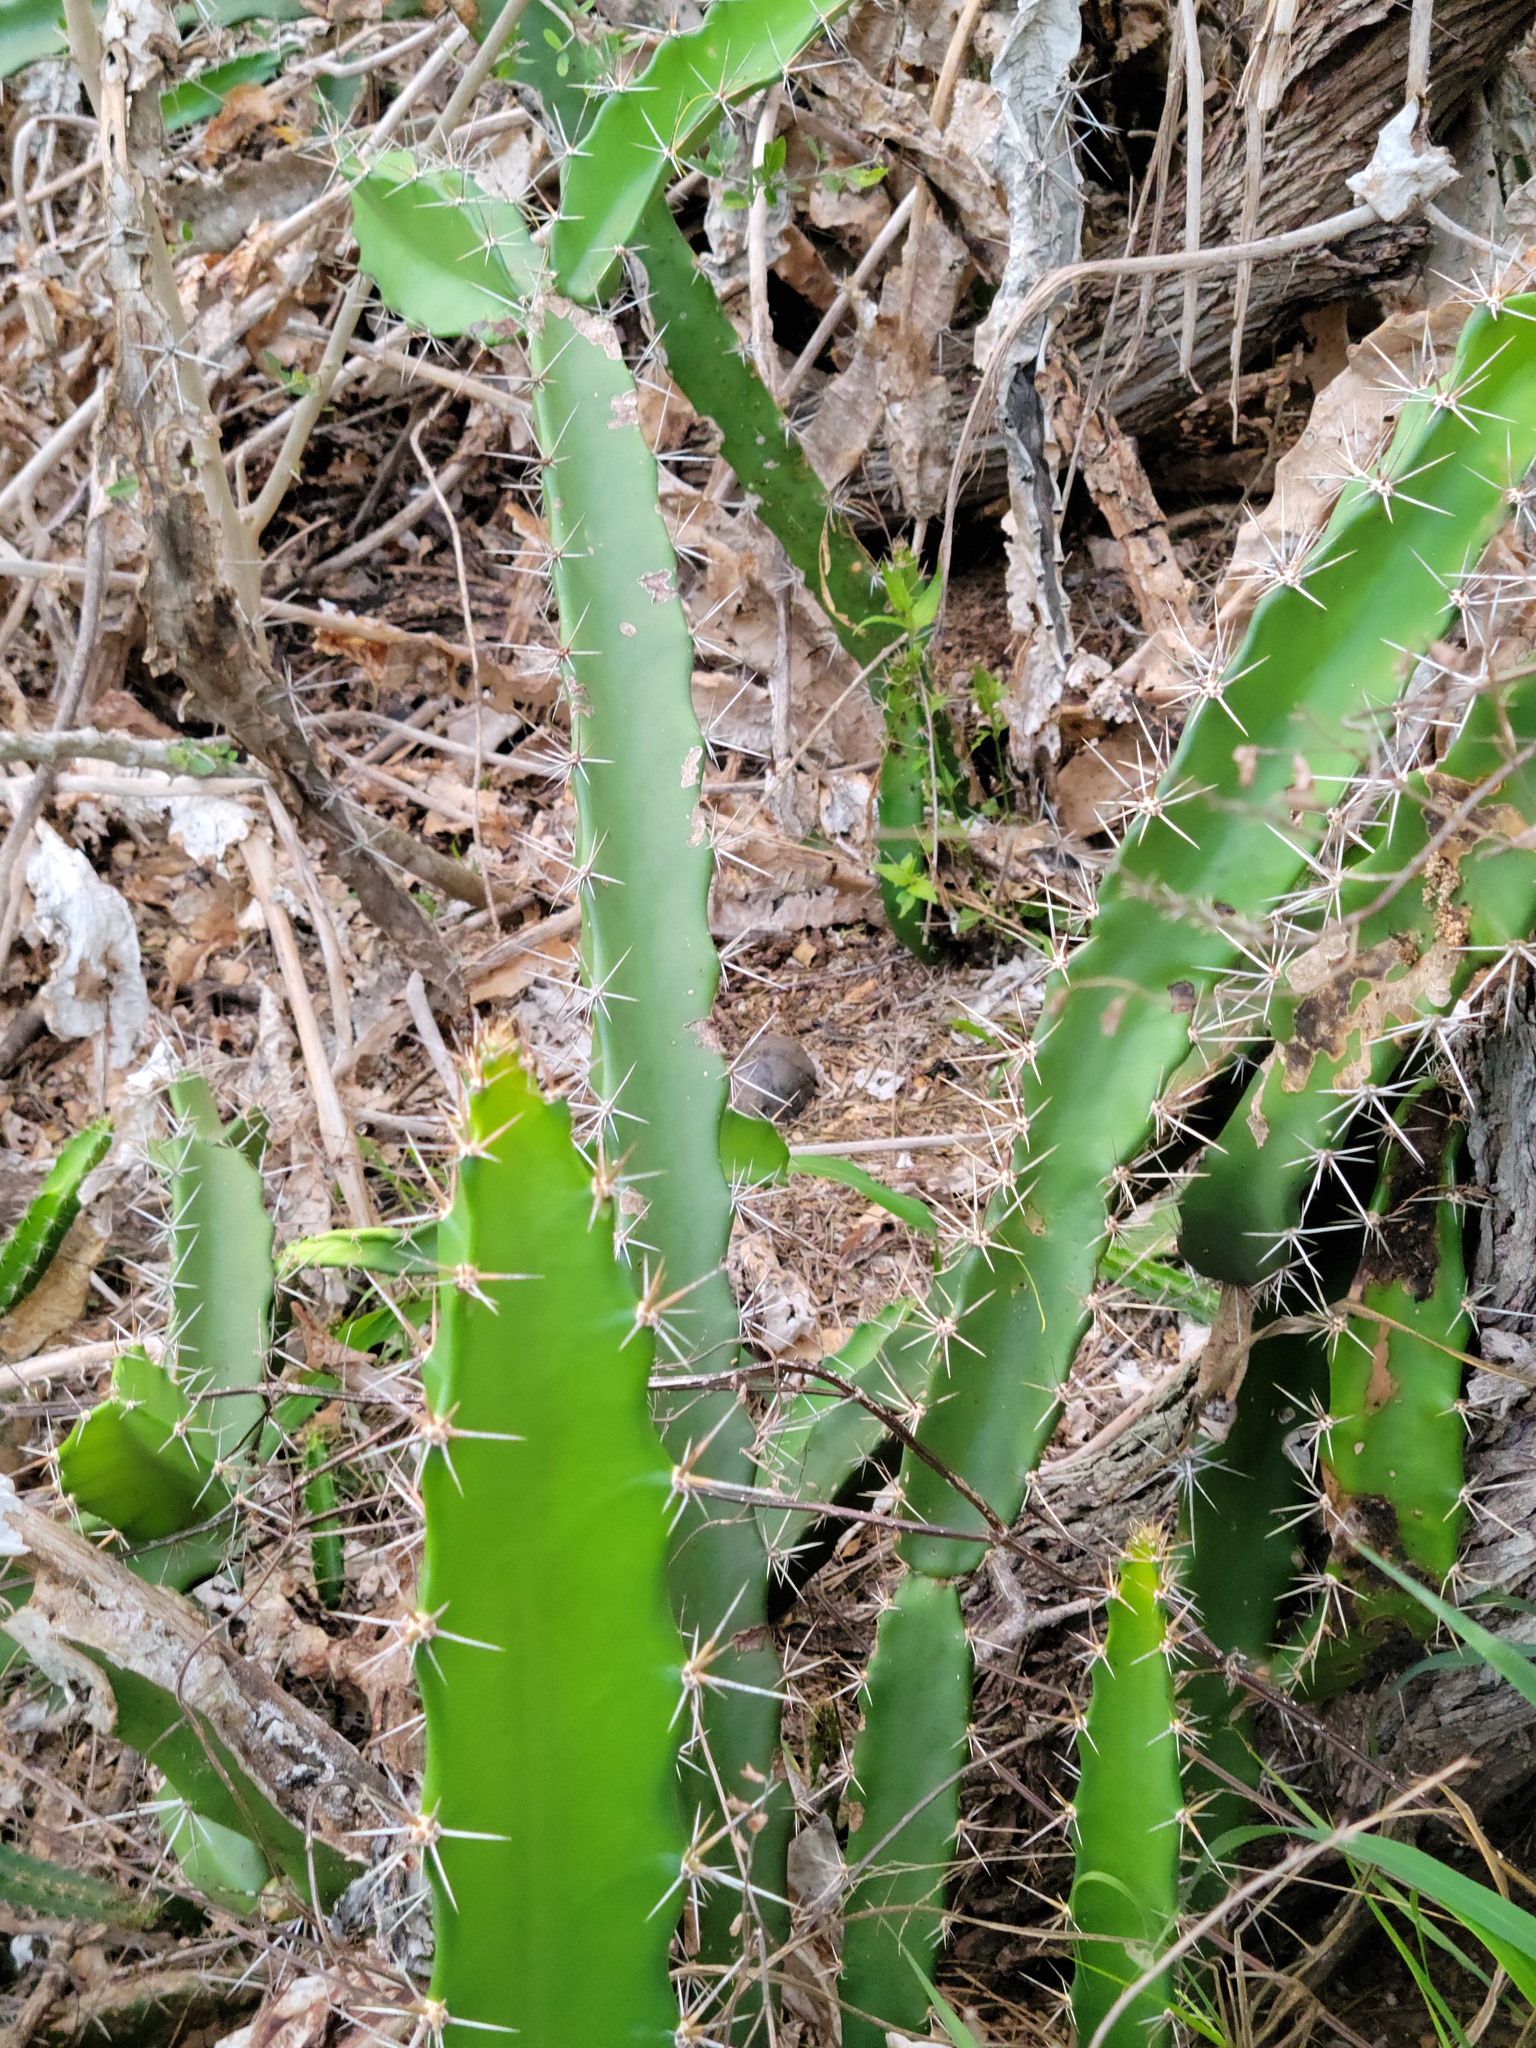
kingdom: Plantae
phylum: Tracheophyta
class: Magnoliopsida
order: Caryophyllales
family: Cactaceae
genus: Acanthocereus
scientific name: Acanthocereus tetragonus
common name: Triangle cactus
